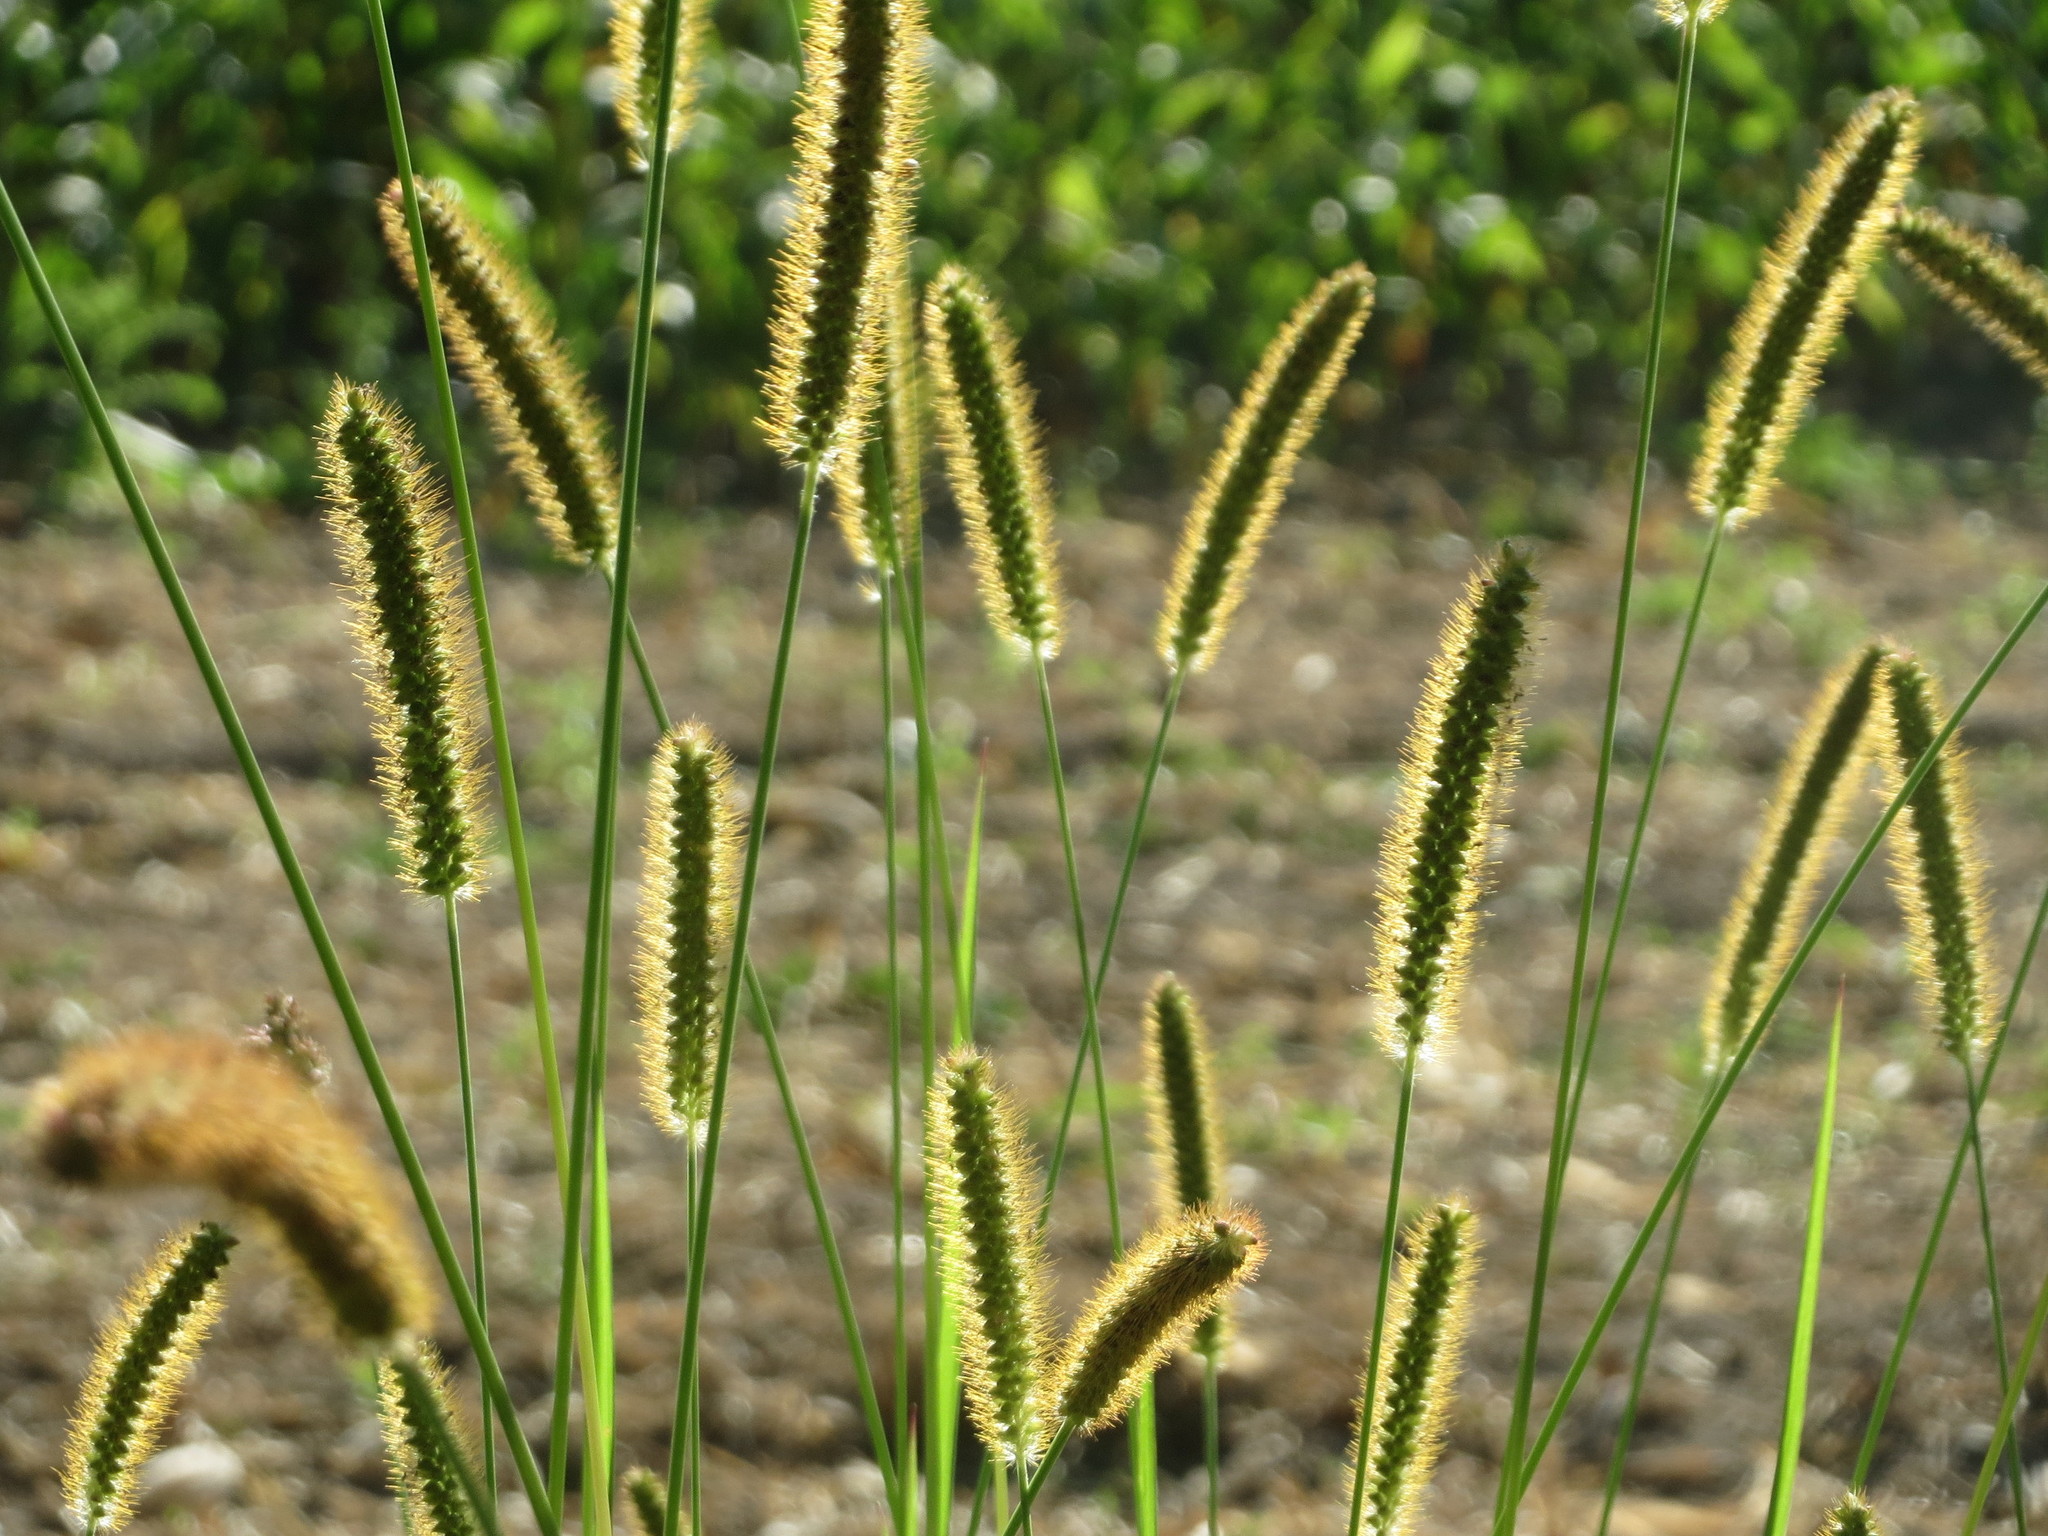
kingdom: Plantae
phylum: Tracheophyta
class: Liliopsida
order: Poales
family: Poaceae
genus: Setaria
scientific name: Setaria pumila
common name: Yellow bristle-grass
